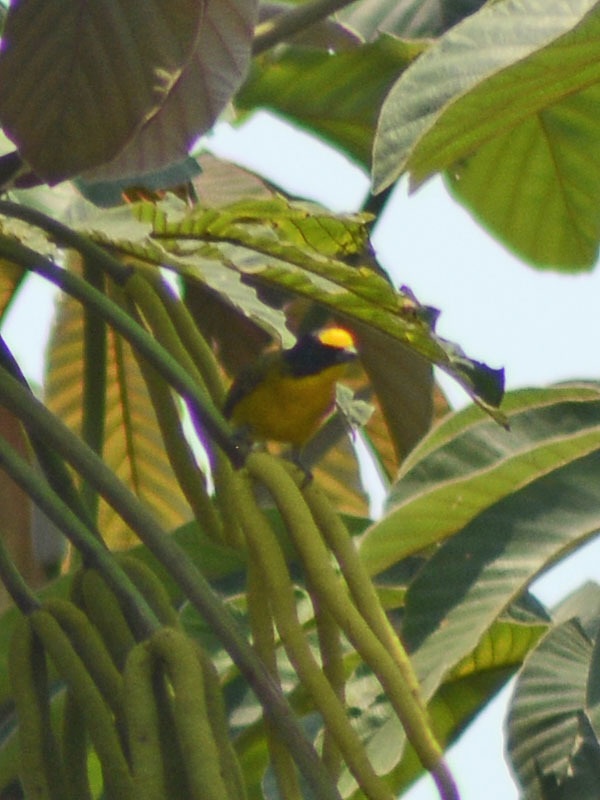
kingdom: Animalia
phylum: Chordata
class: Aves
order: Passeriformes
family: Fringillidae
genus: Euphonia
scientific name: Euphonia hirundinacea
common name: Yellow-throated euphonia
